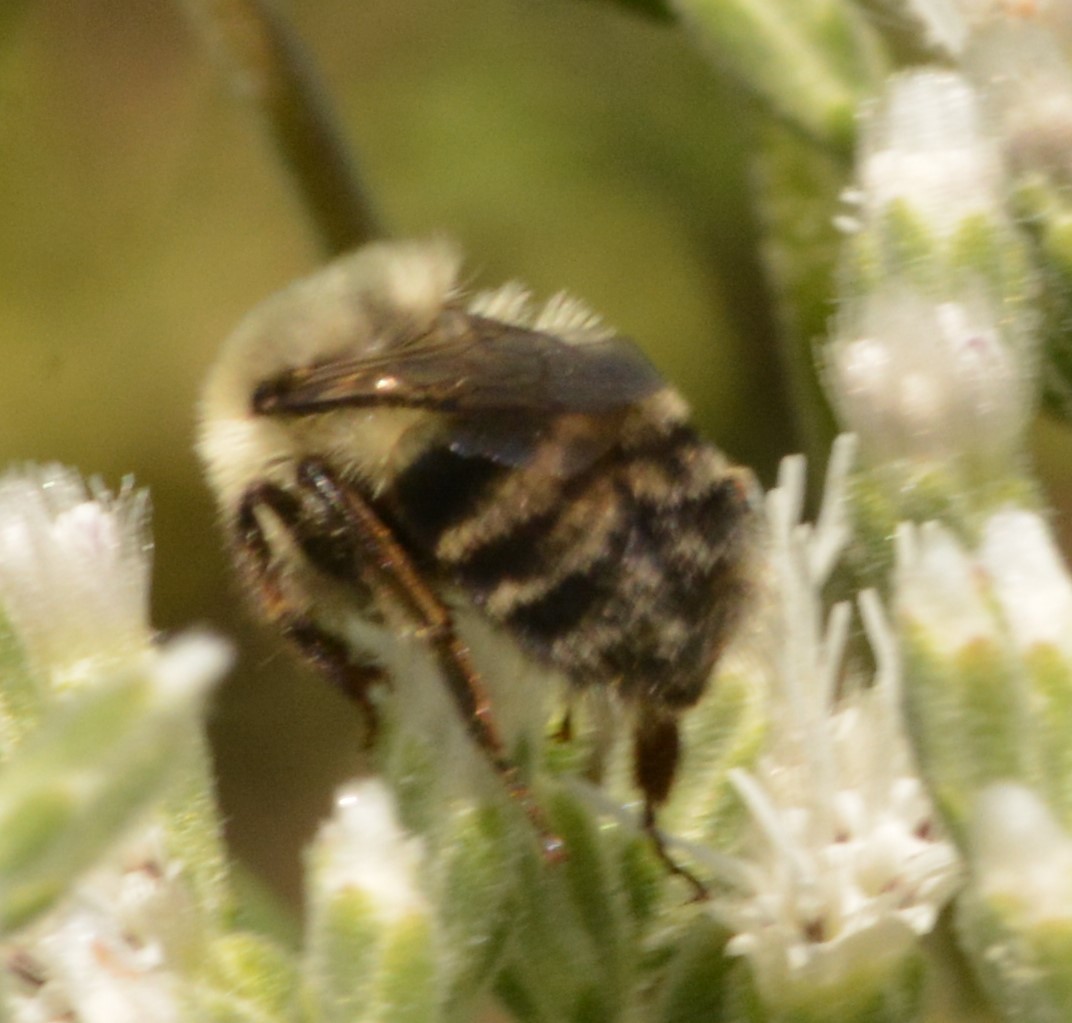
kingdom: Animalia
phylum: Arthropoda
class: Insecta
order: Hymenoptera
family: Apidae
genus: Bombus
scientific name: Bombus impatiens
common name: Common eastern bumble bee
